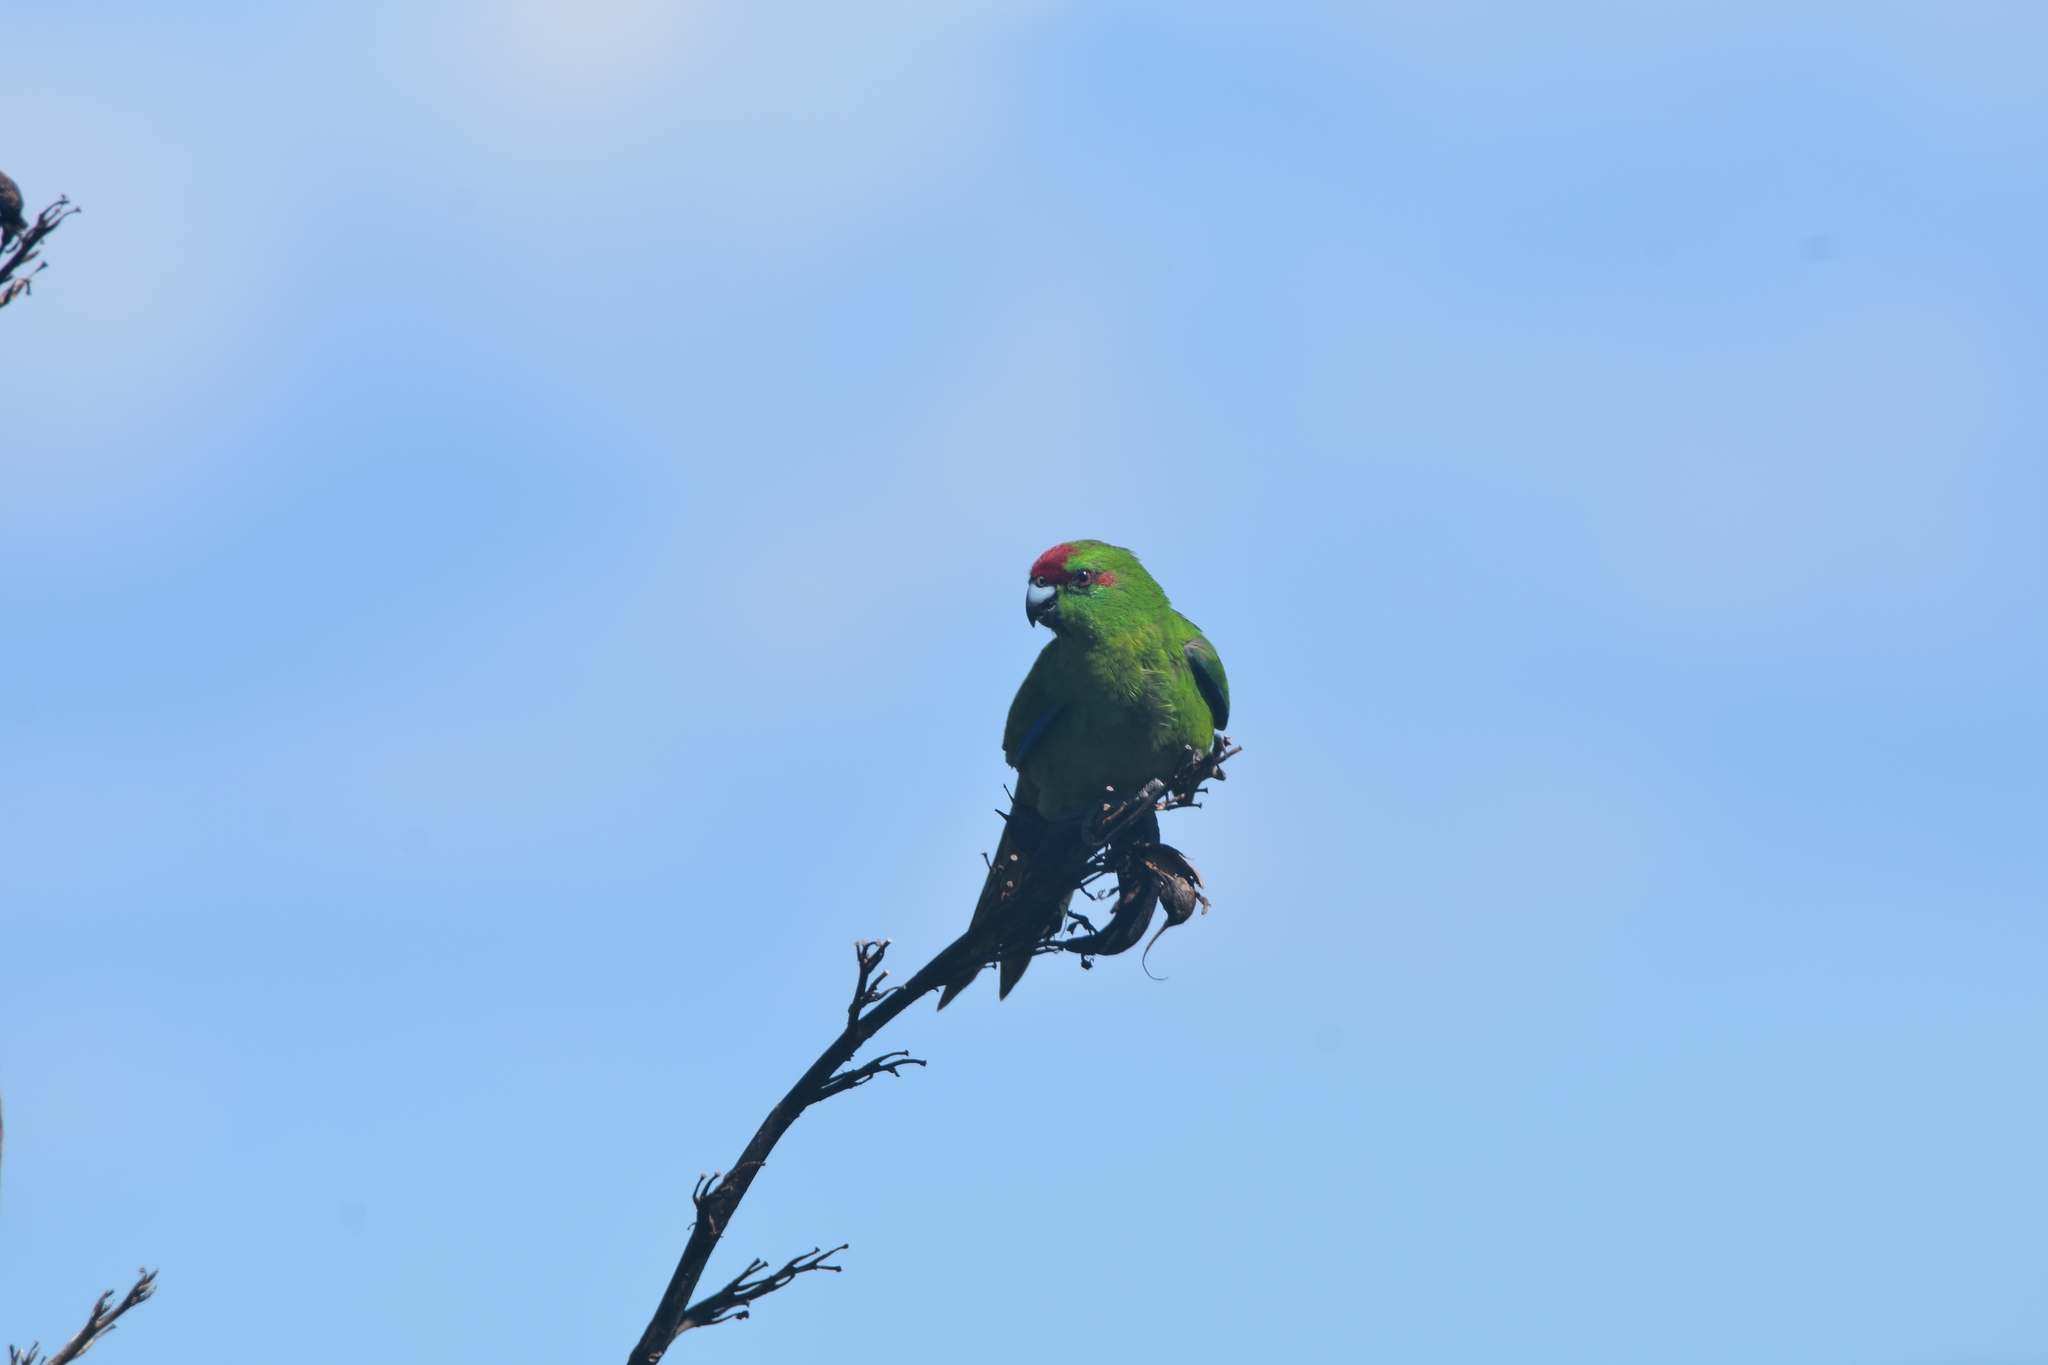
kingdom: Animalia
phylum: Chordata
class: Aves
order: Psittaciformes
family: Psittacidae
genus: Cyanoramphus
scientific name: Cyanoramphus novaezelandiae
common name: Red-fronted parakeet
